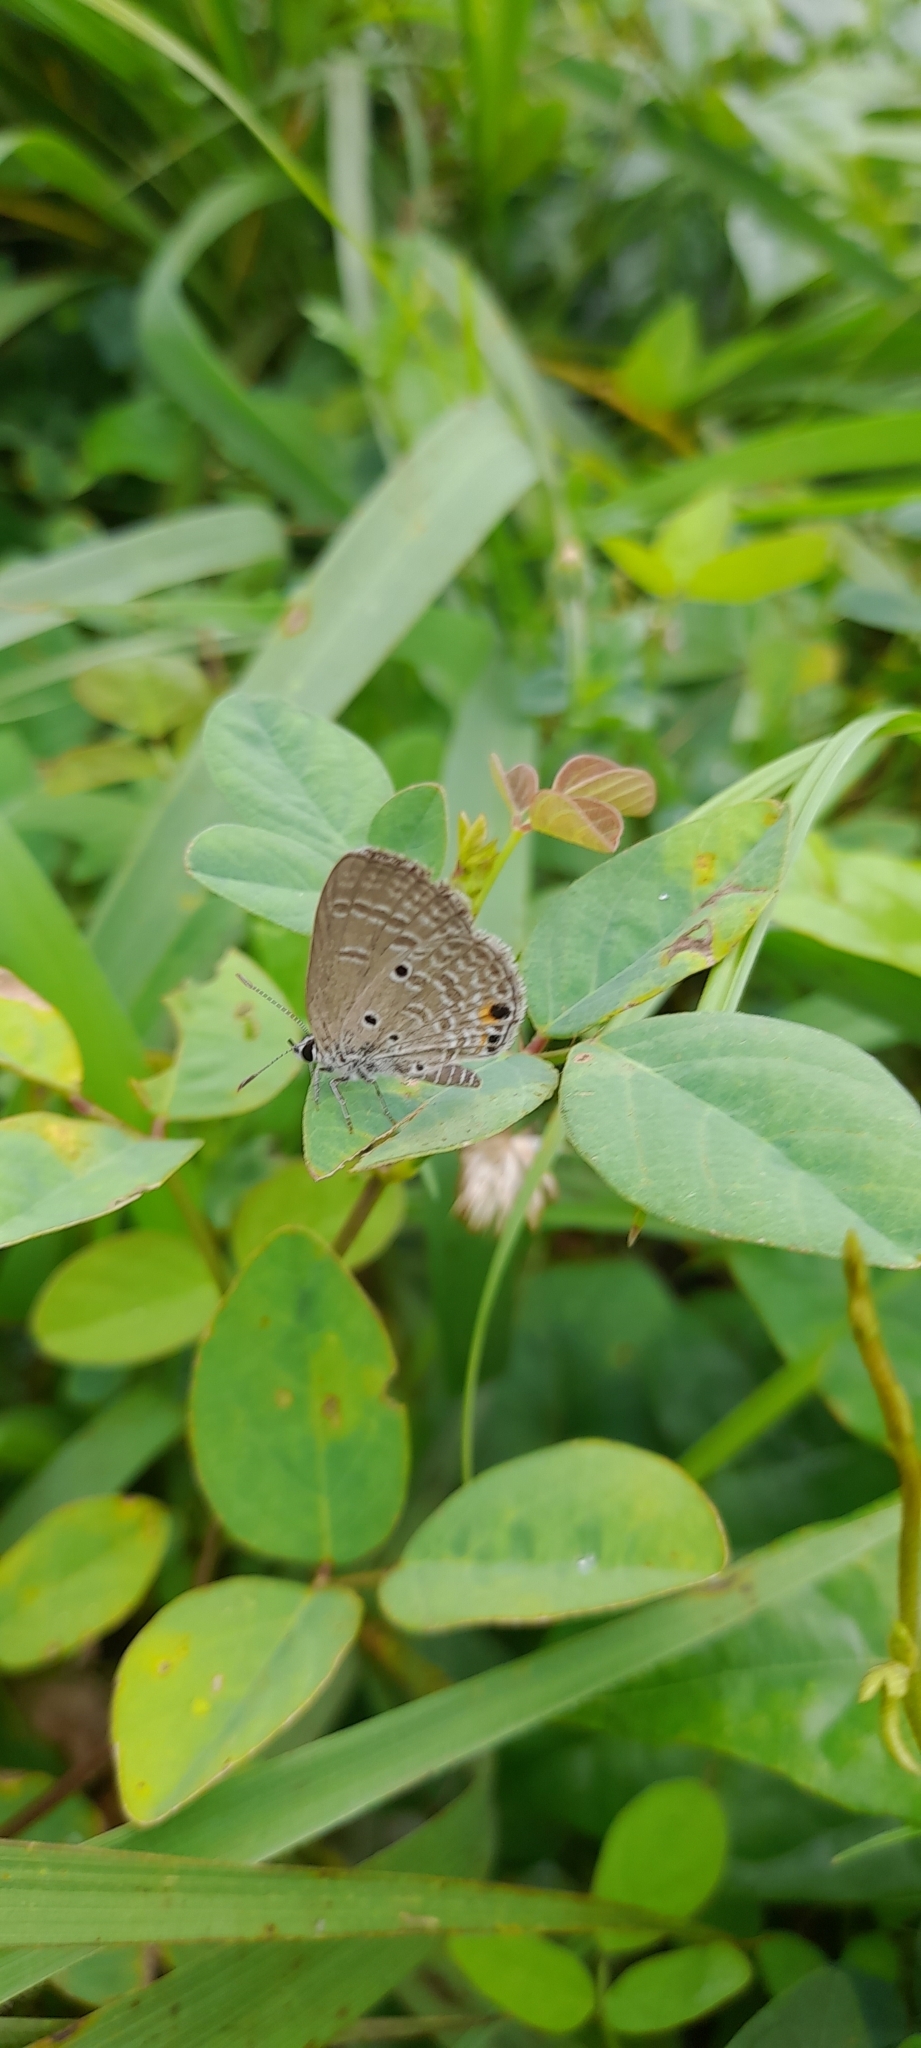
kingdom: Animalia
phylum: Arthropoda
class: Insecta
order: Lepidoptera
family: Lycaenidae
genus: Luthrodes
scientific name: Luthrodes pandava
